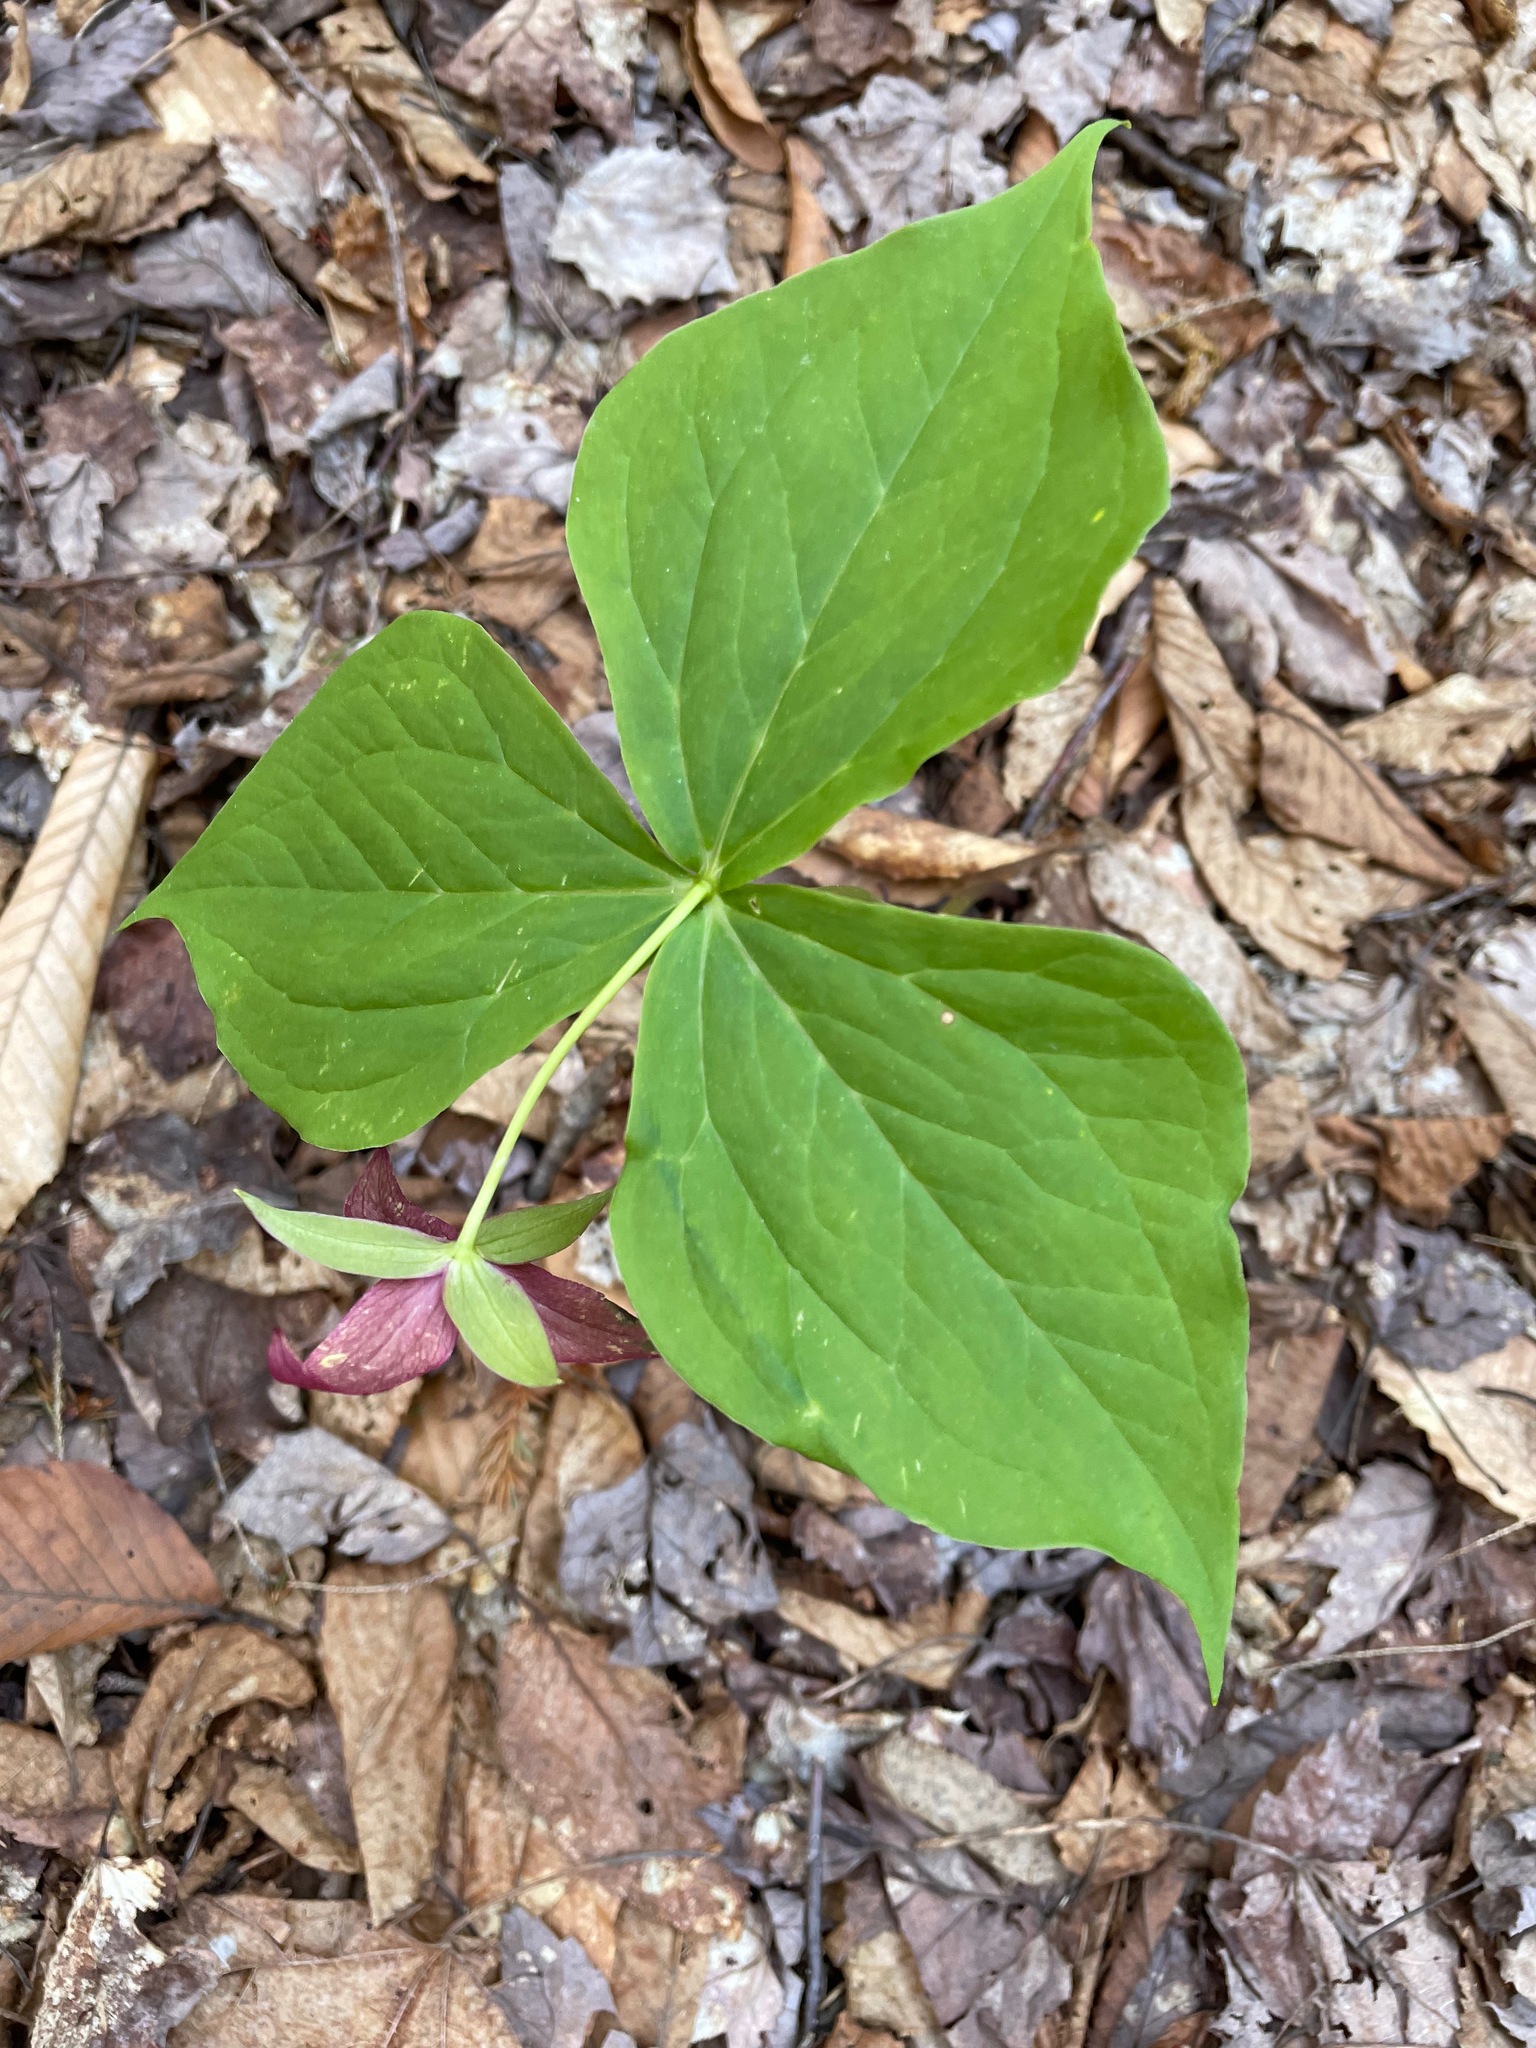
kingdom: Plantae
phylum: Tracheophyta
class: Liliopsida
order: Liliales
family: Melanthiaceae
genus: Trillium
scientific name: Trillium erectum
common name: Purple trillium
